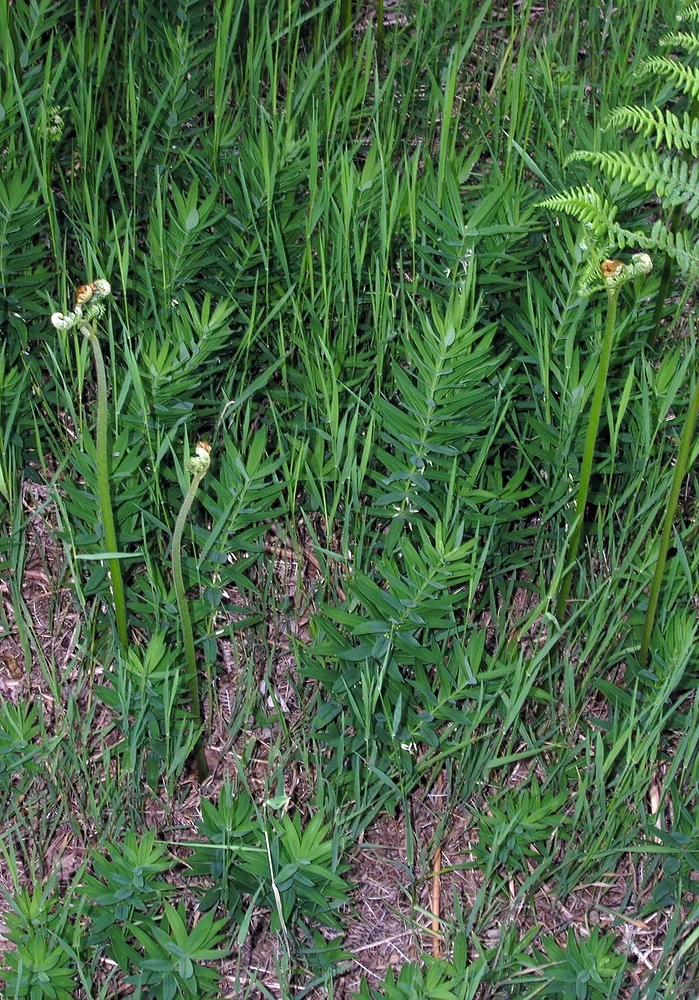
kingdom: Plantae
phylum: Tracheophyta
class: Liliopsida
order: Asparagales
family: Asparagaceae
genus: Polygonatum
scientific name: Polygonatum verticillatum
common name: Whorled solomon's-seal
